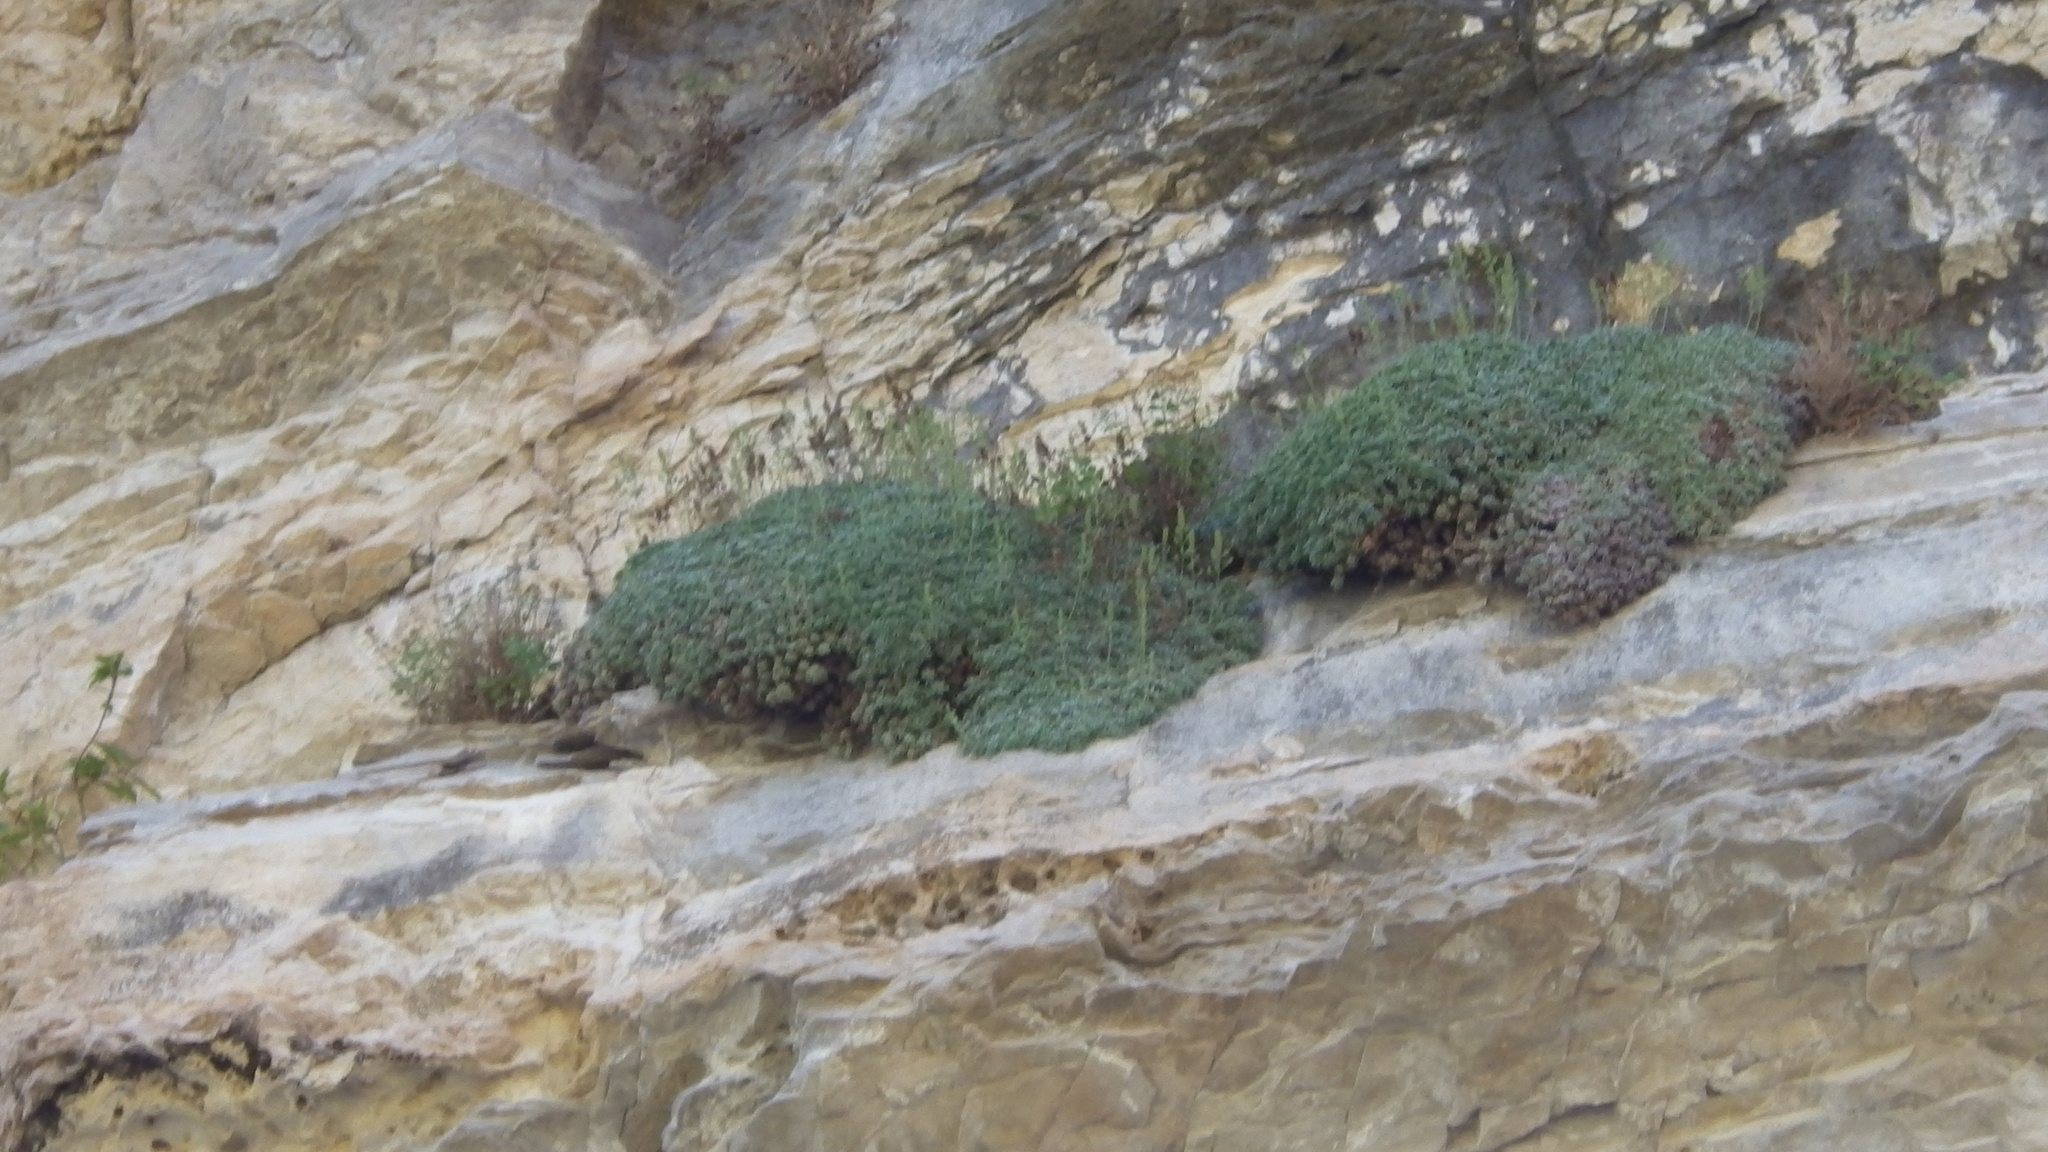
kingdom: Plantae
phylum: Tracheophyta
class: Magnoliopsida
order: Rosales
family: Rosaceae
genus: Petrophytum
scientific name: Petrophytum caespitosum
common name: Mat rockspirea
